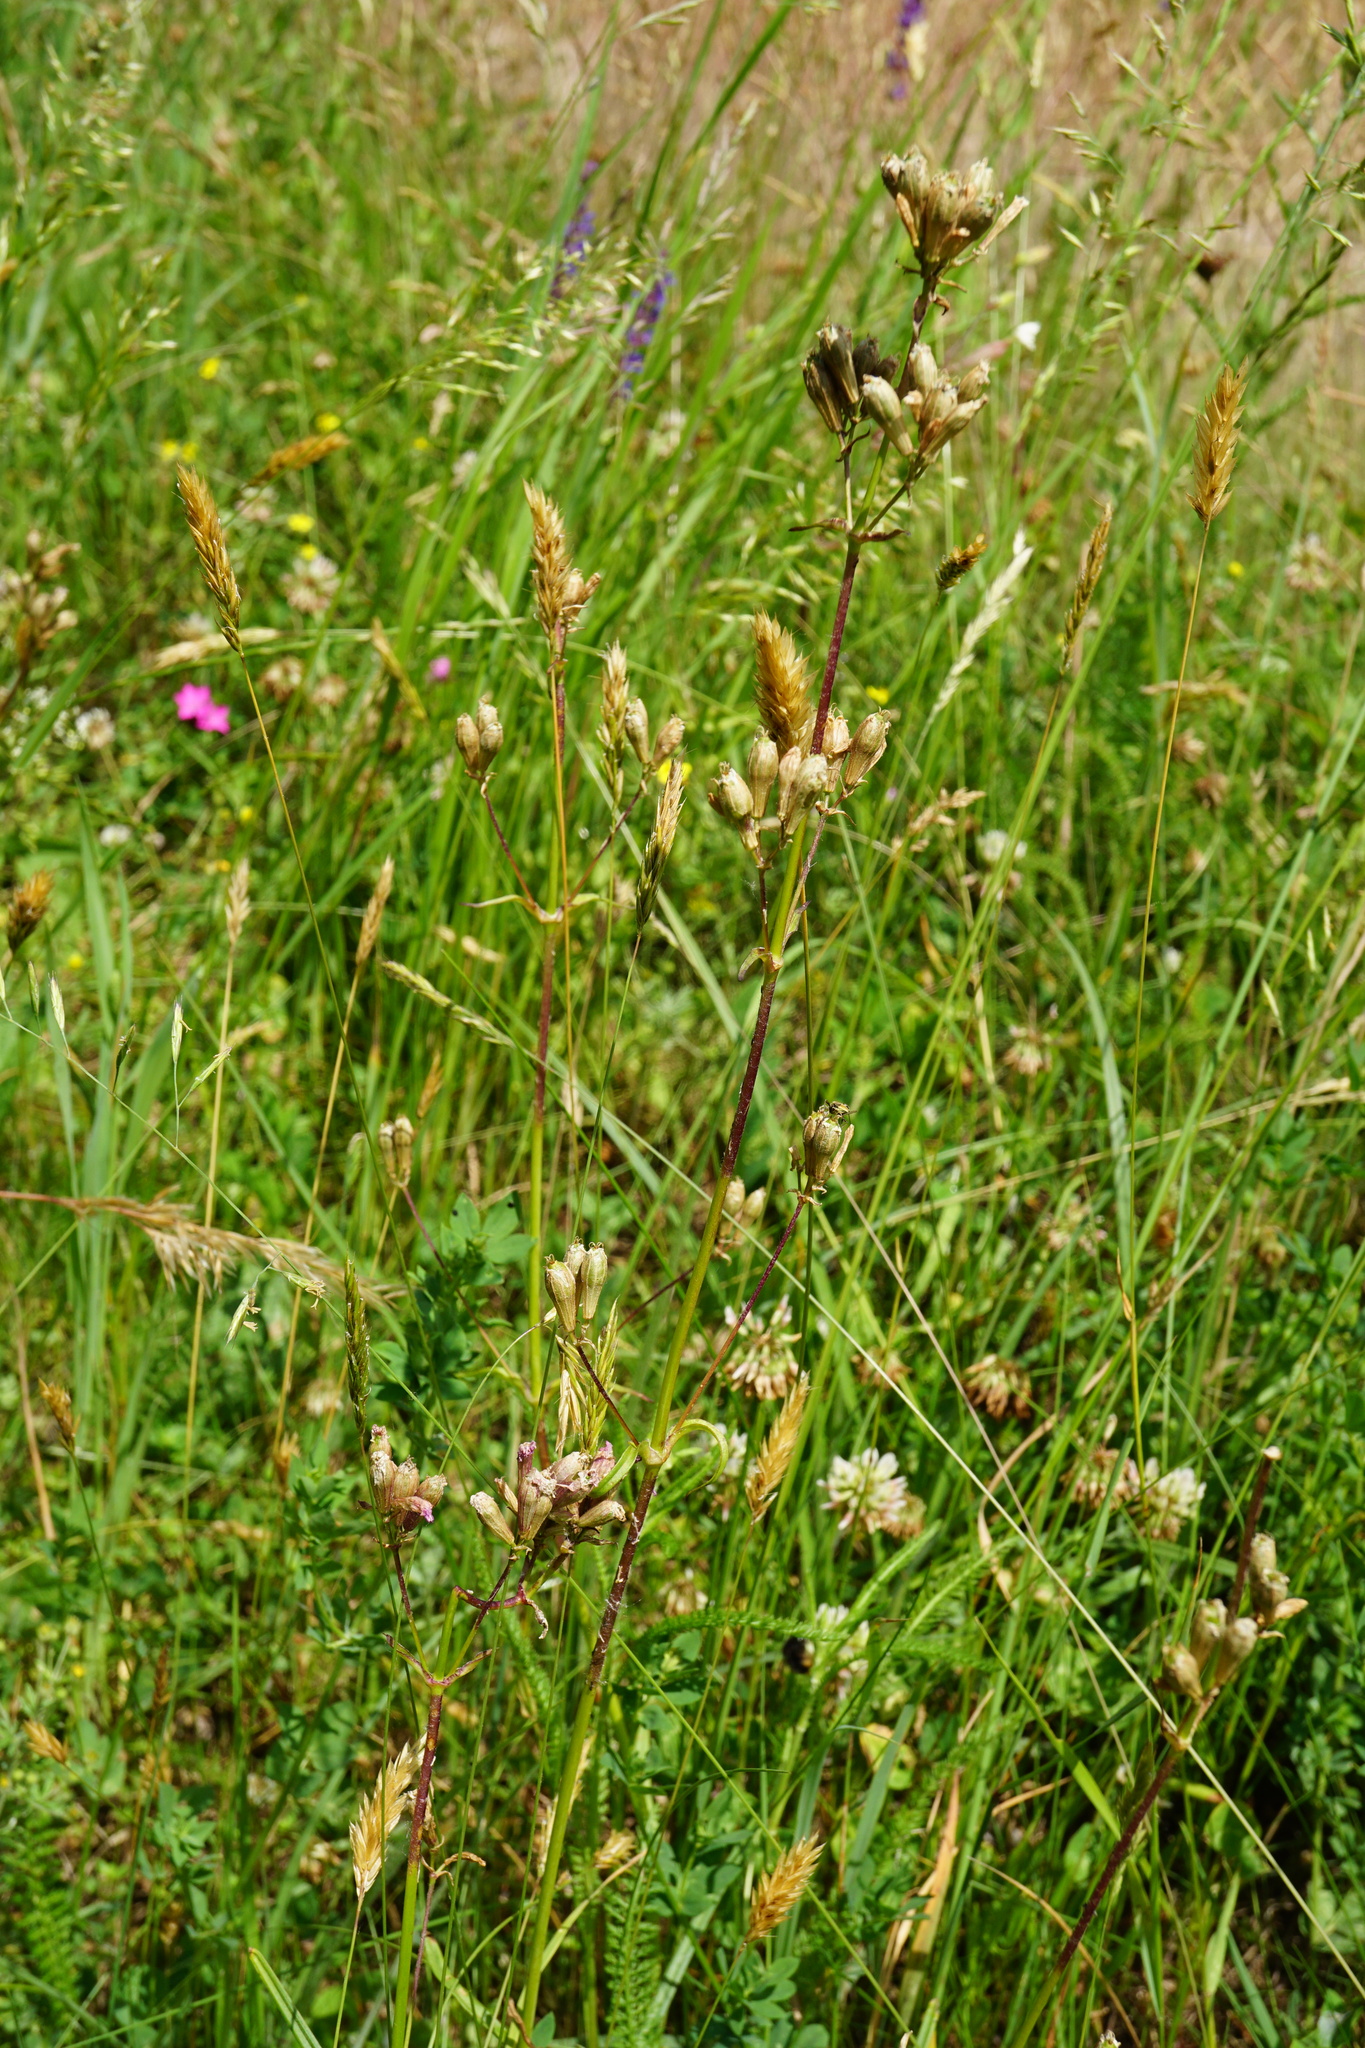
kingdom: Plantae
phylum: Tracheophyta
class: Magnoliopsida
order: Caryophyllales
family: Caryophyllaceae
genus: Viscaria
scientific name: Viscaria vulgaris
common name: Clammy campion
